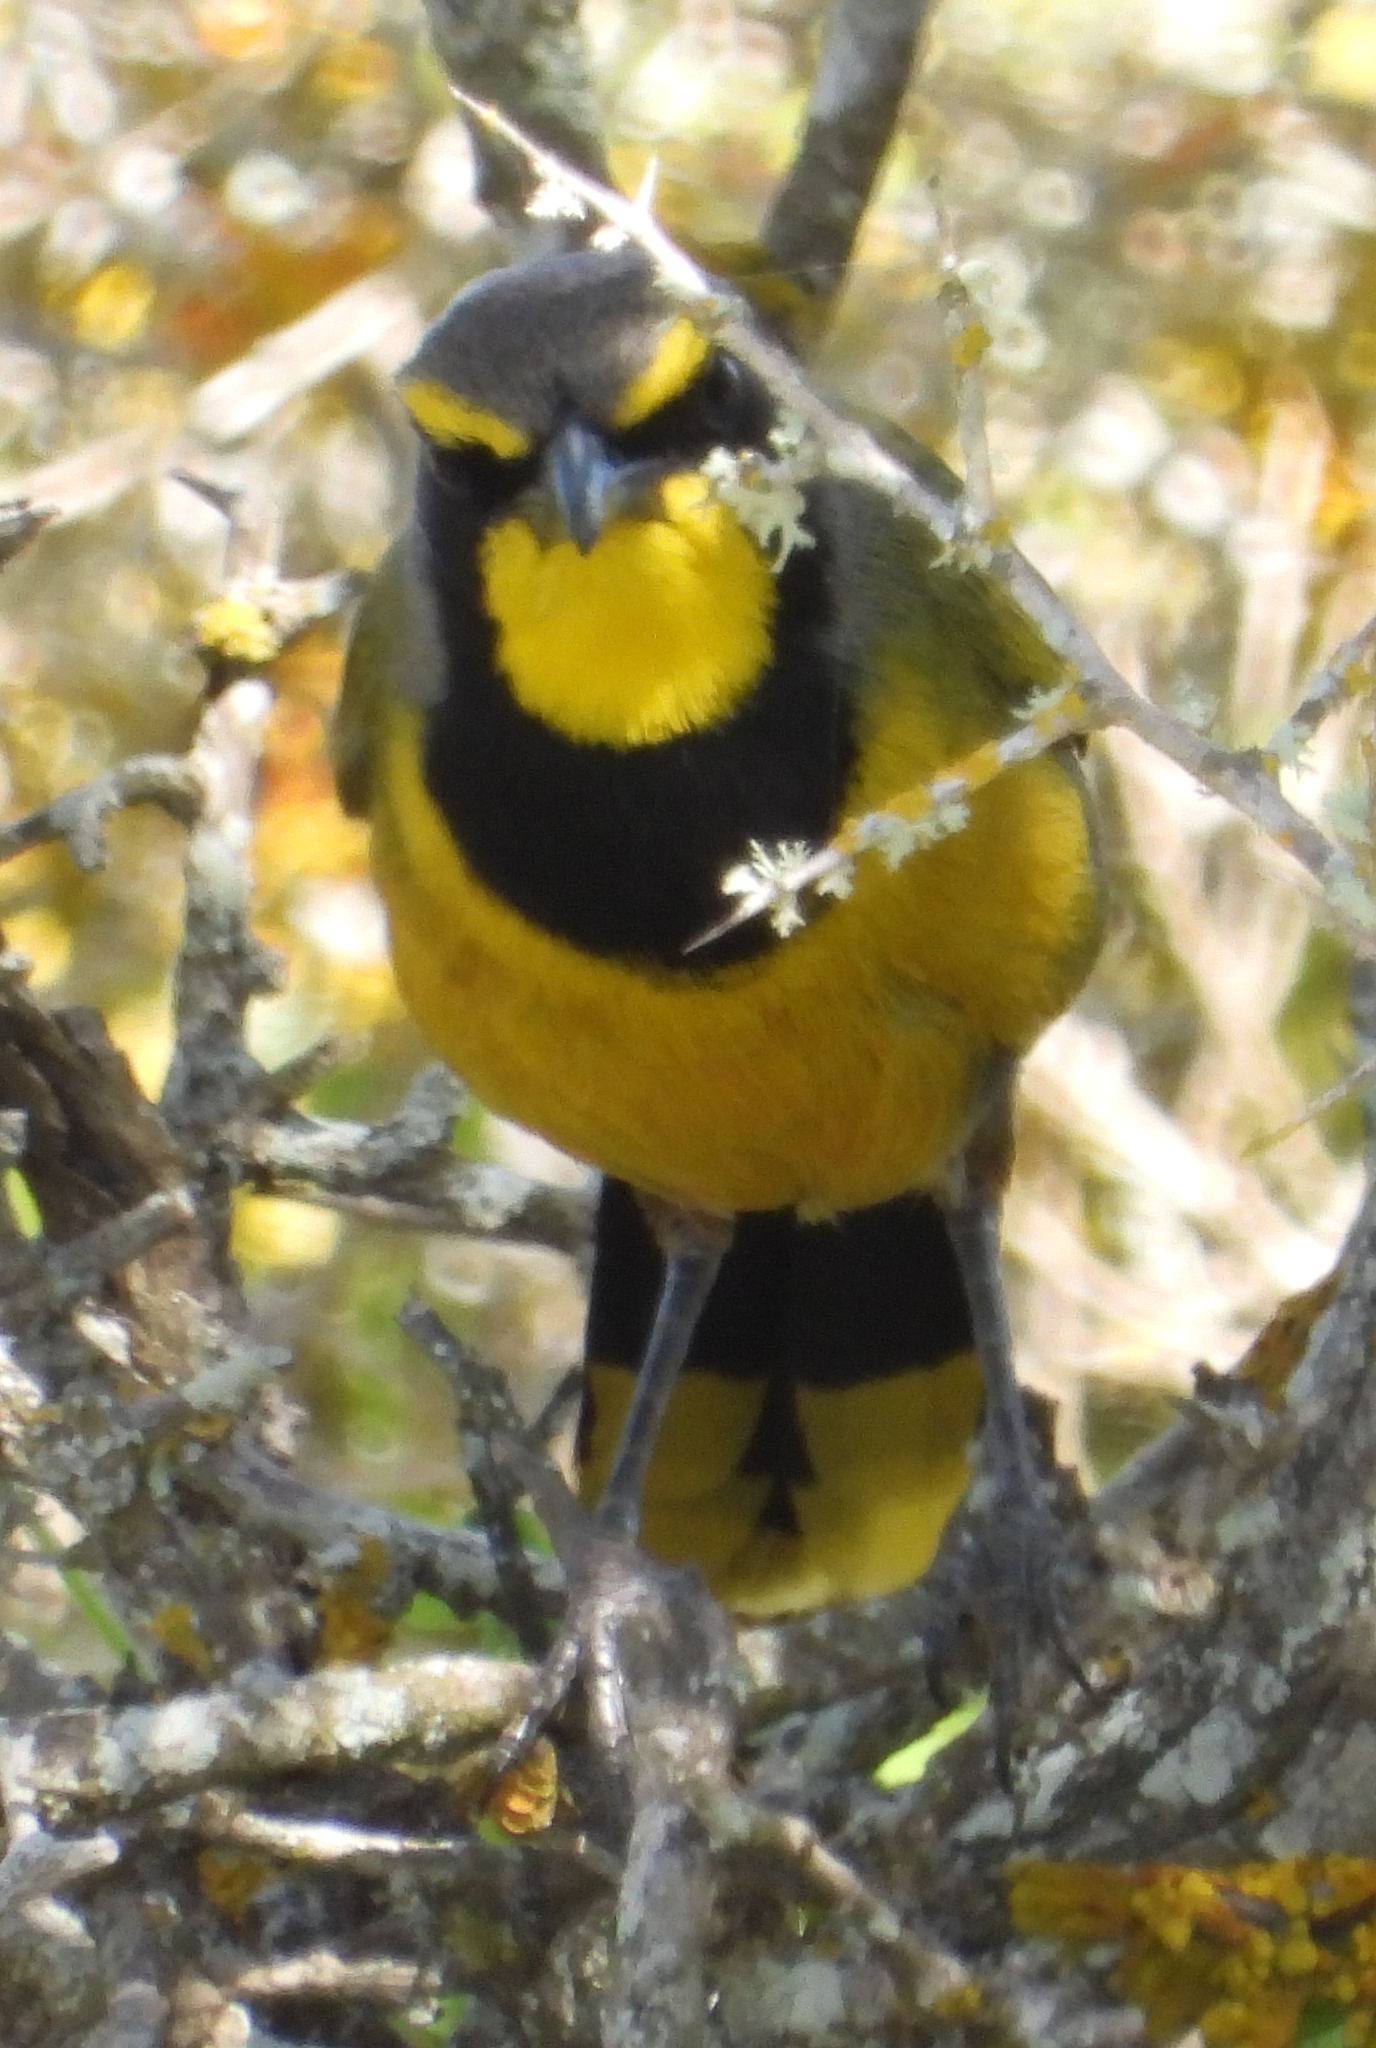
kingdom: Animalia
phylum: Chordata
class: Aves
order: Passeriformes
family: Malaconotidae
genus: Telophorus
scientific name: Telophorus zeylonus
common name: Bokmakierie
